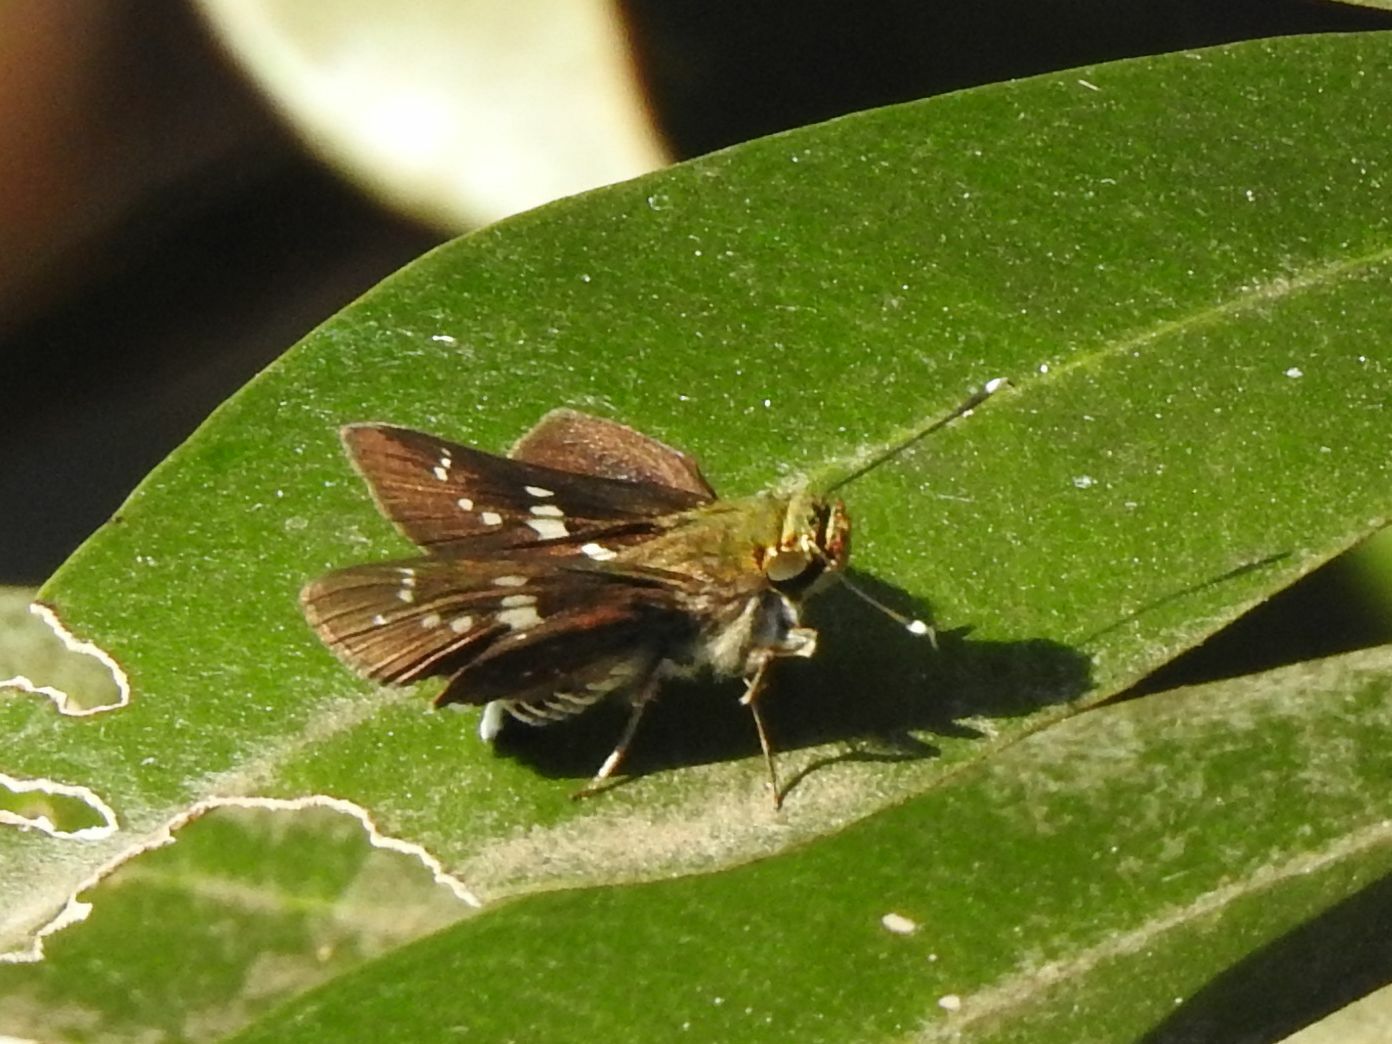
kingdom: Animalia
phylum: Arthropoda
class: Insecta
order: Lepidoptera
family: Hesperiidae
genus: Platylesches
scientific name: Platylesches robustus
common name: Robust hopper
